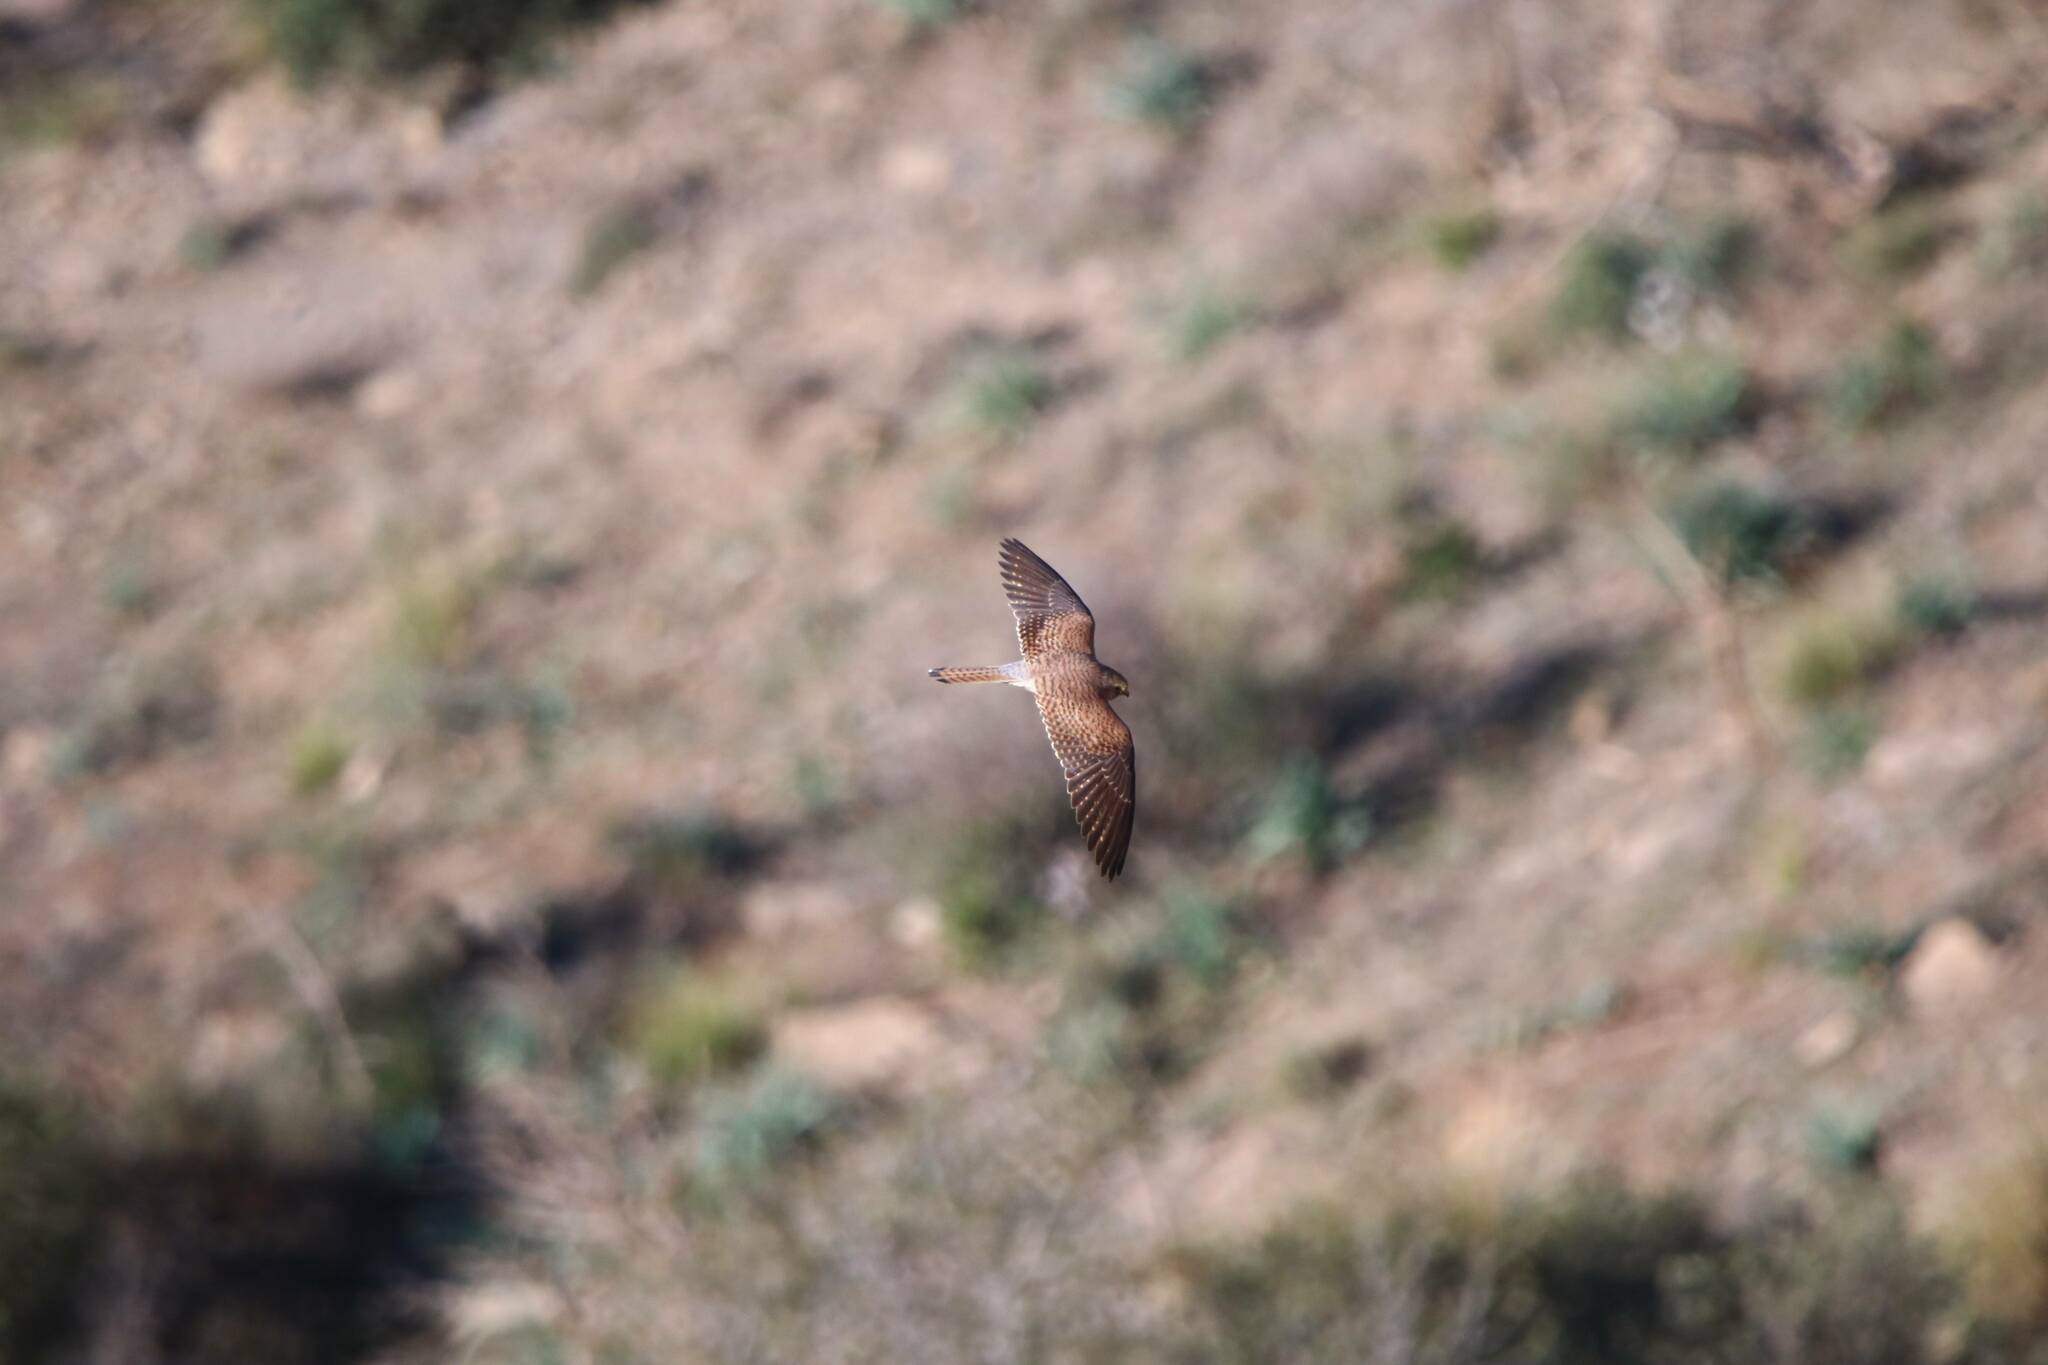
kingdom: Animalia
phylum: Chordata
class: Aves
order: Falconiformes
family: Falconidae
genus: Falco
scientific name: Falco naumanni
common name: Lesser kestrel
